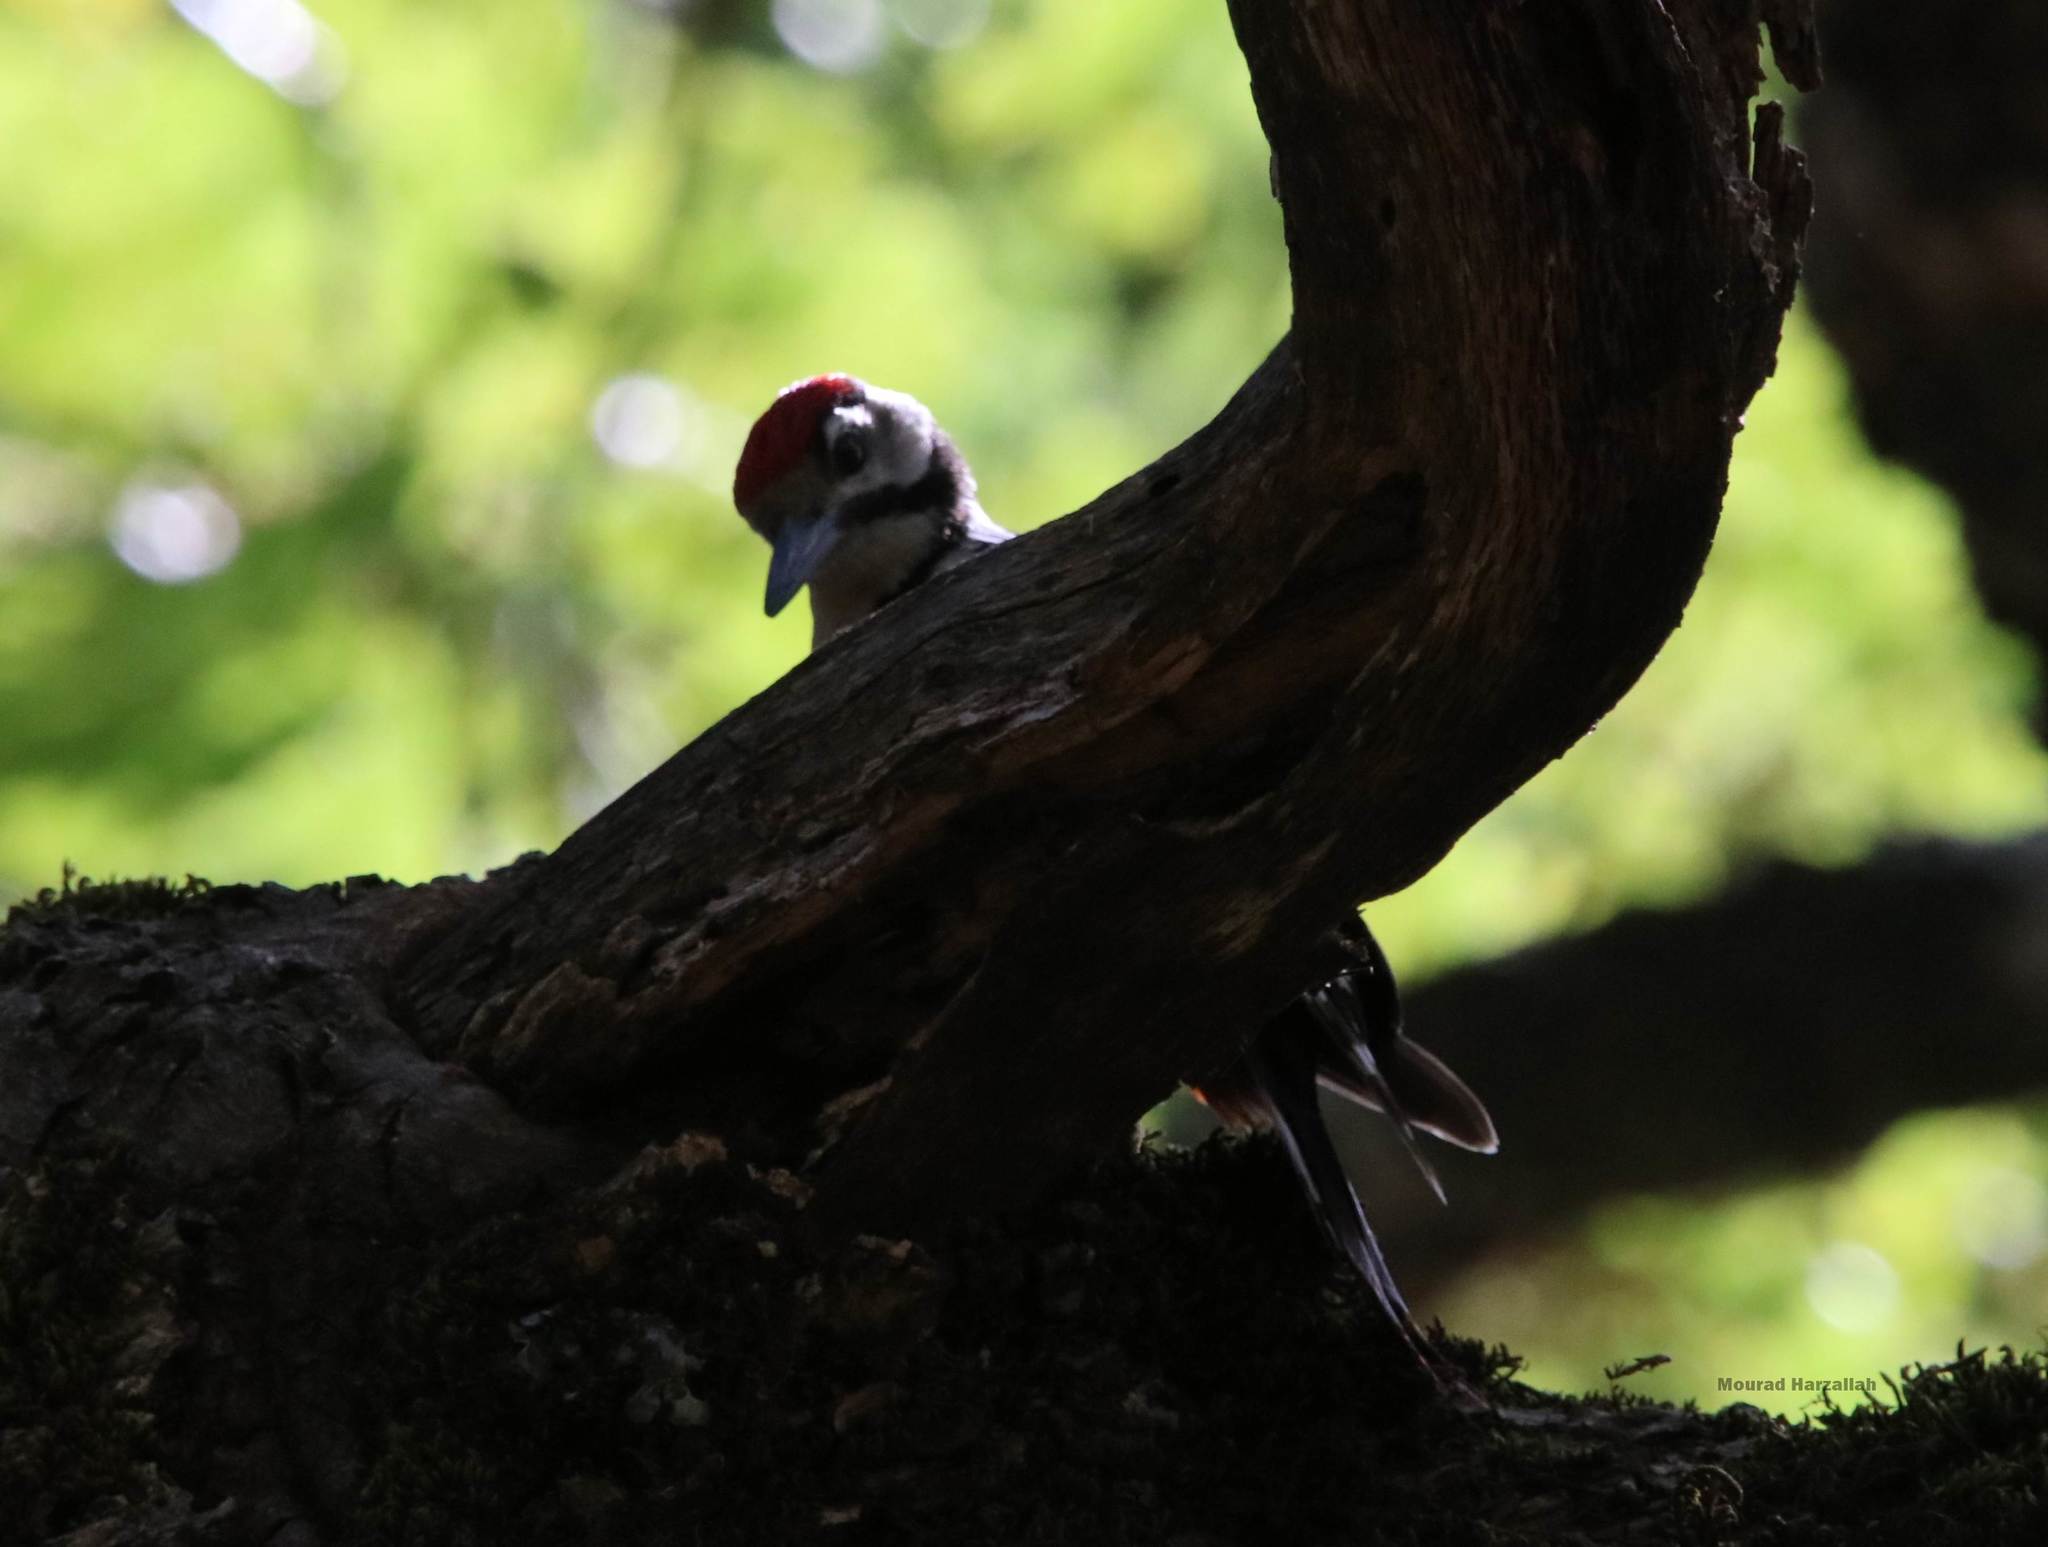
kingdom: Animalia
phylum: Chordata
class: Aves
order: Piciformes
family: Picidae
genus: Dendrocopos
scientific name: Dendrocopos major
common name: Great spotted woodpecker
